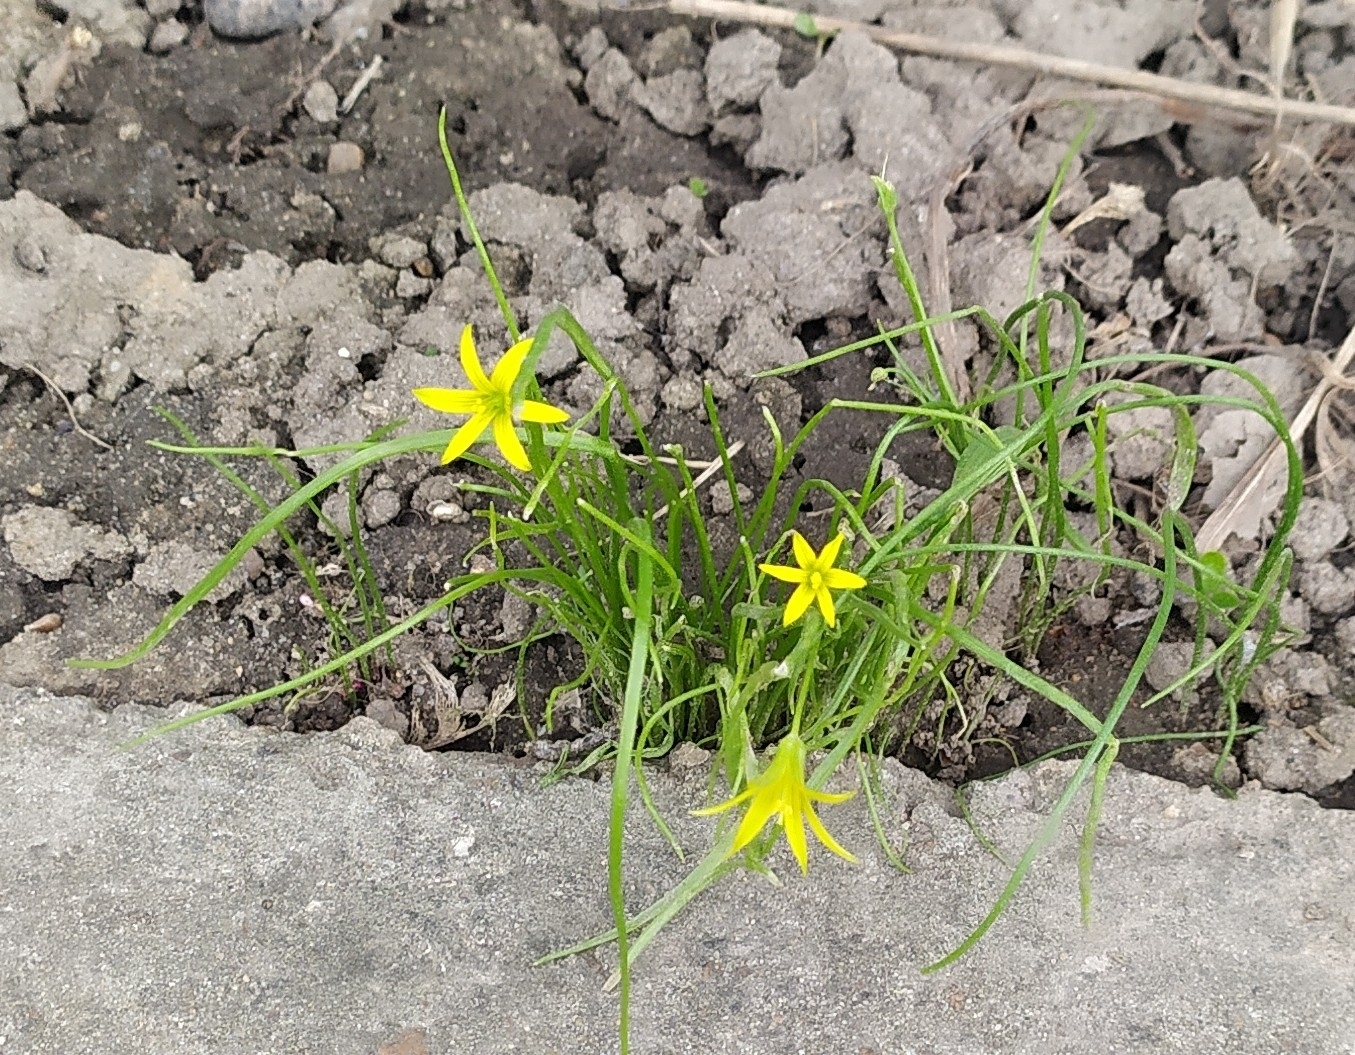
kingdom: Plantae
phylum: Tracheophyta
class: Liliopsida
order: Liliales
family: Liliaceae
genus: Gagea
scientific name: Gagea minima
